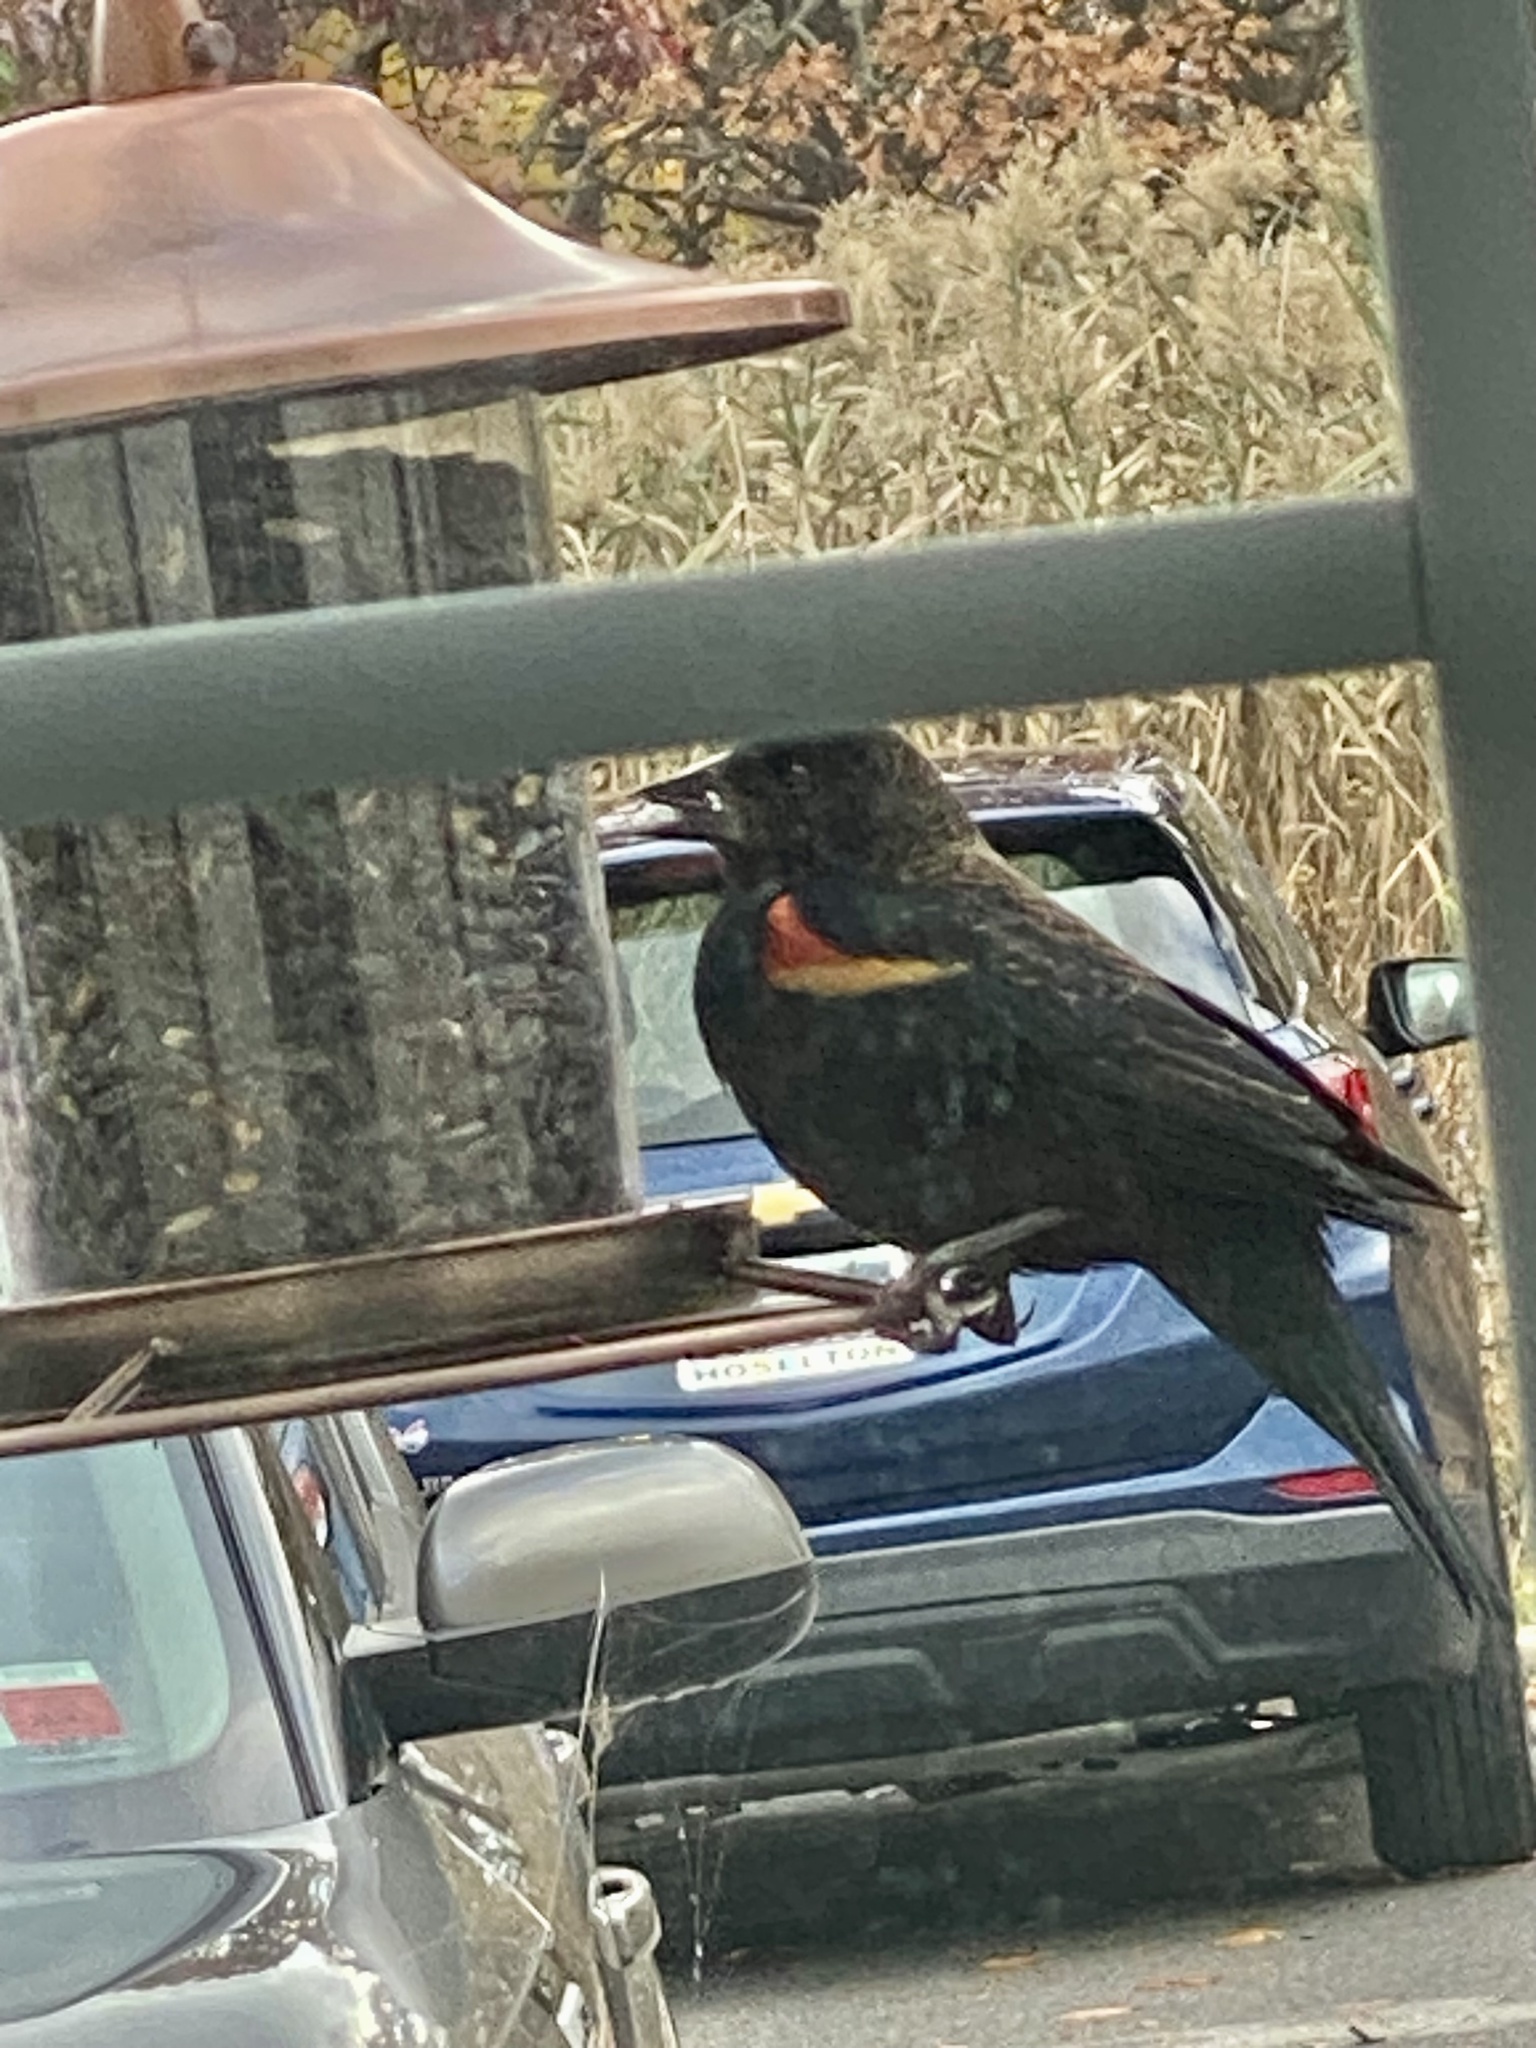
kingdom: Animalia
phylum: Chordata
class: Aves
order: Passeriformes
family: Icteridae
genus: Agelaius
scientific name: Agelaius phoeniceus
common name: Red-winged blackbird
